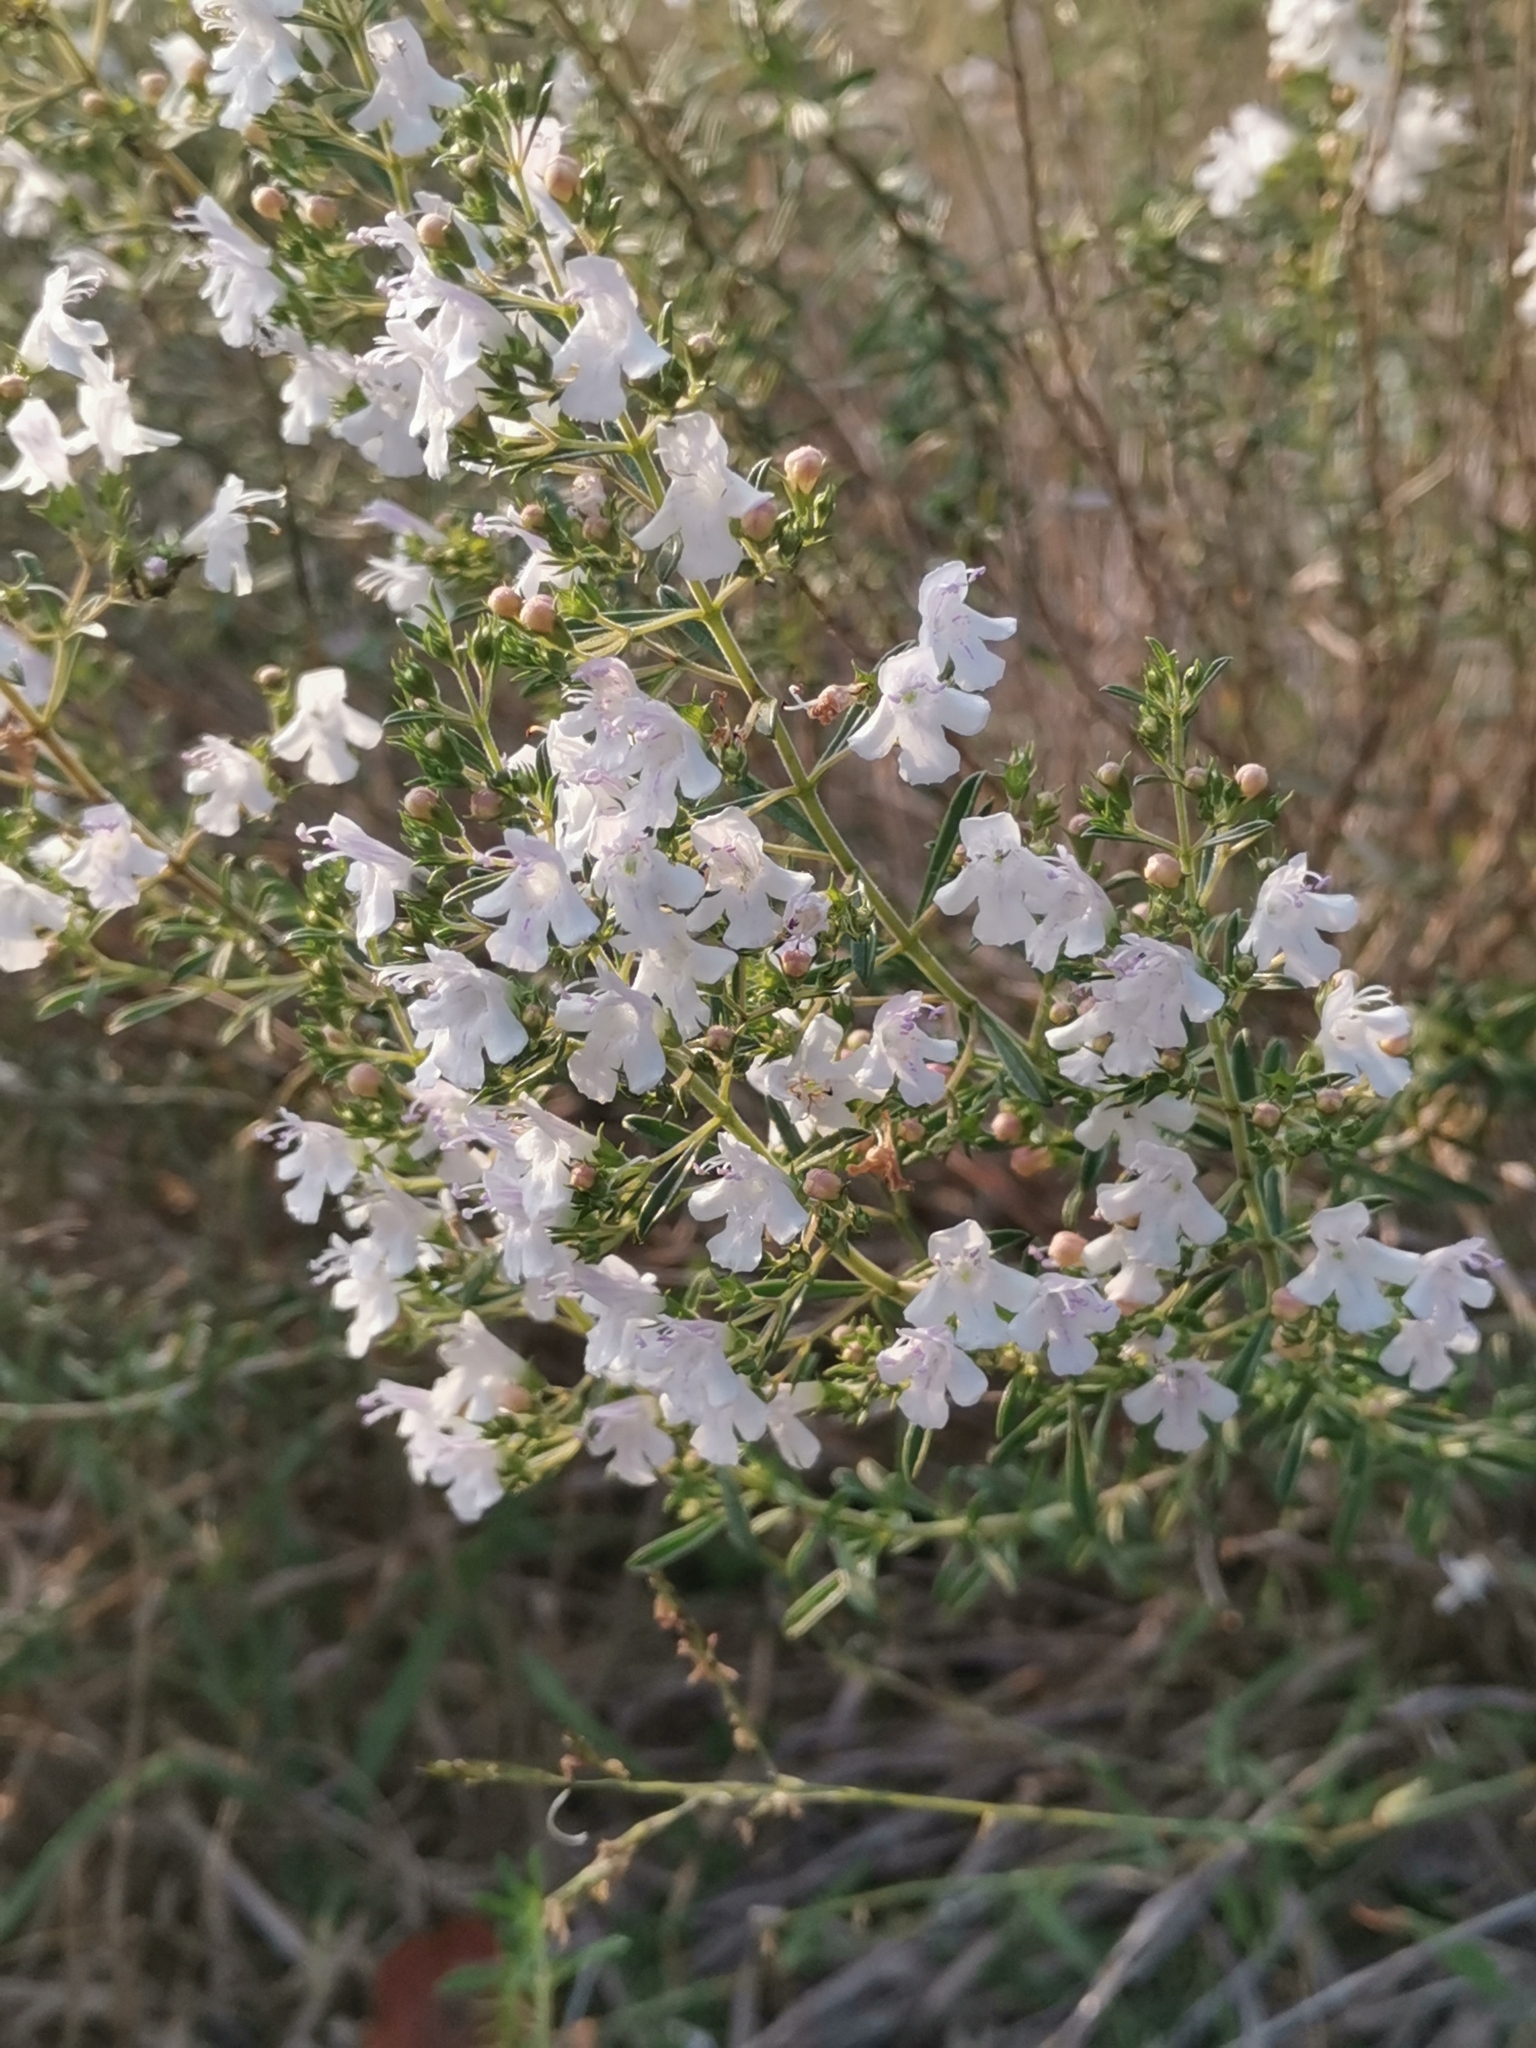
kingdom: Plantae
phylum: Tracheophyta
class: Magnoliopsida
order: Lamiales
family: Lamiaceae
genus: Satureja
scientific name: Satureja montana
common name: Winter savory
